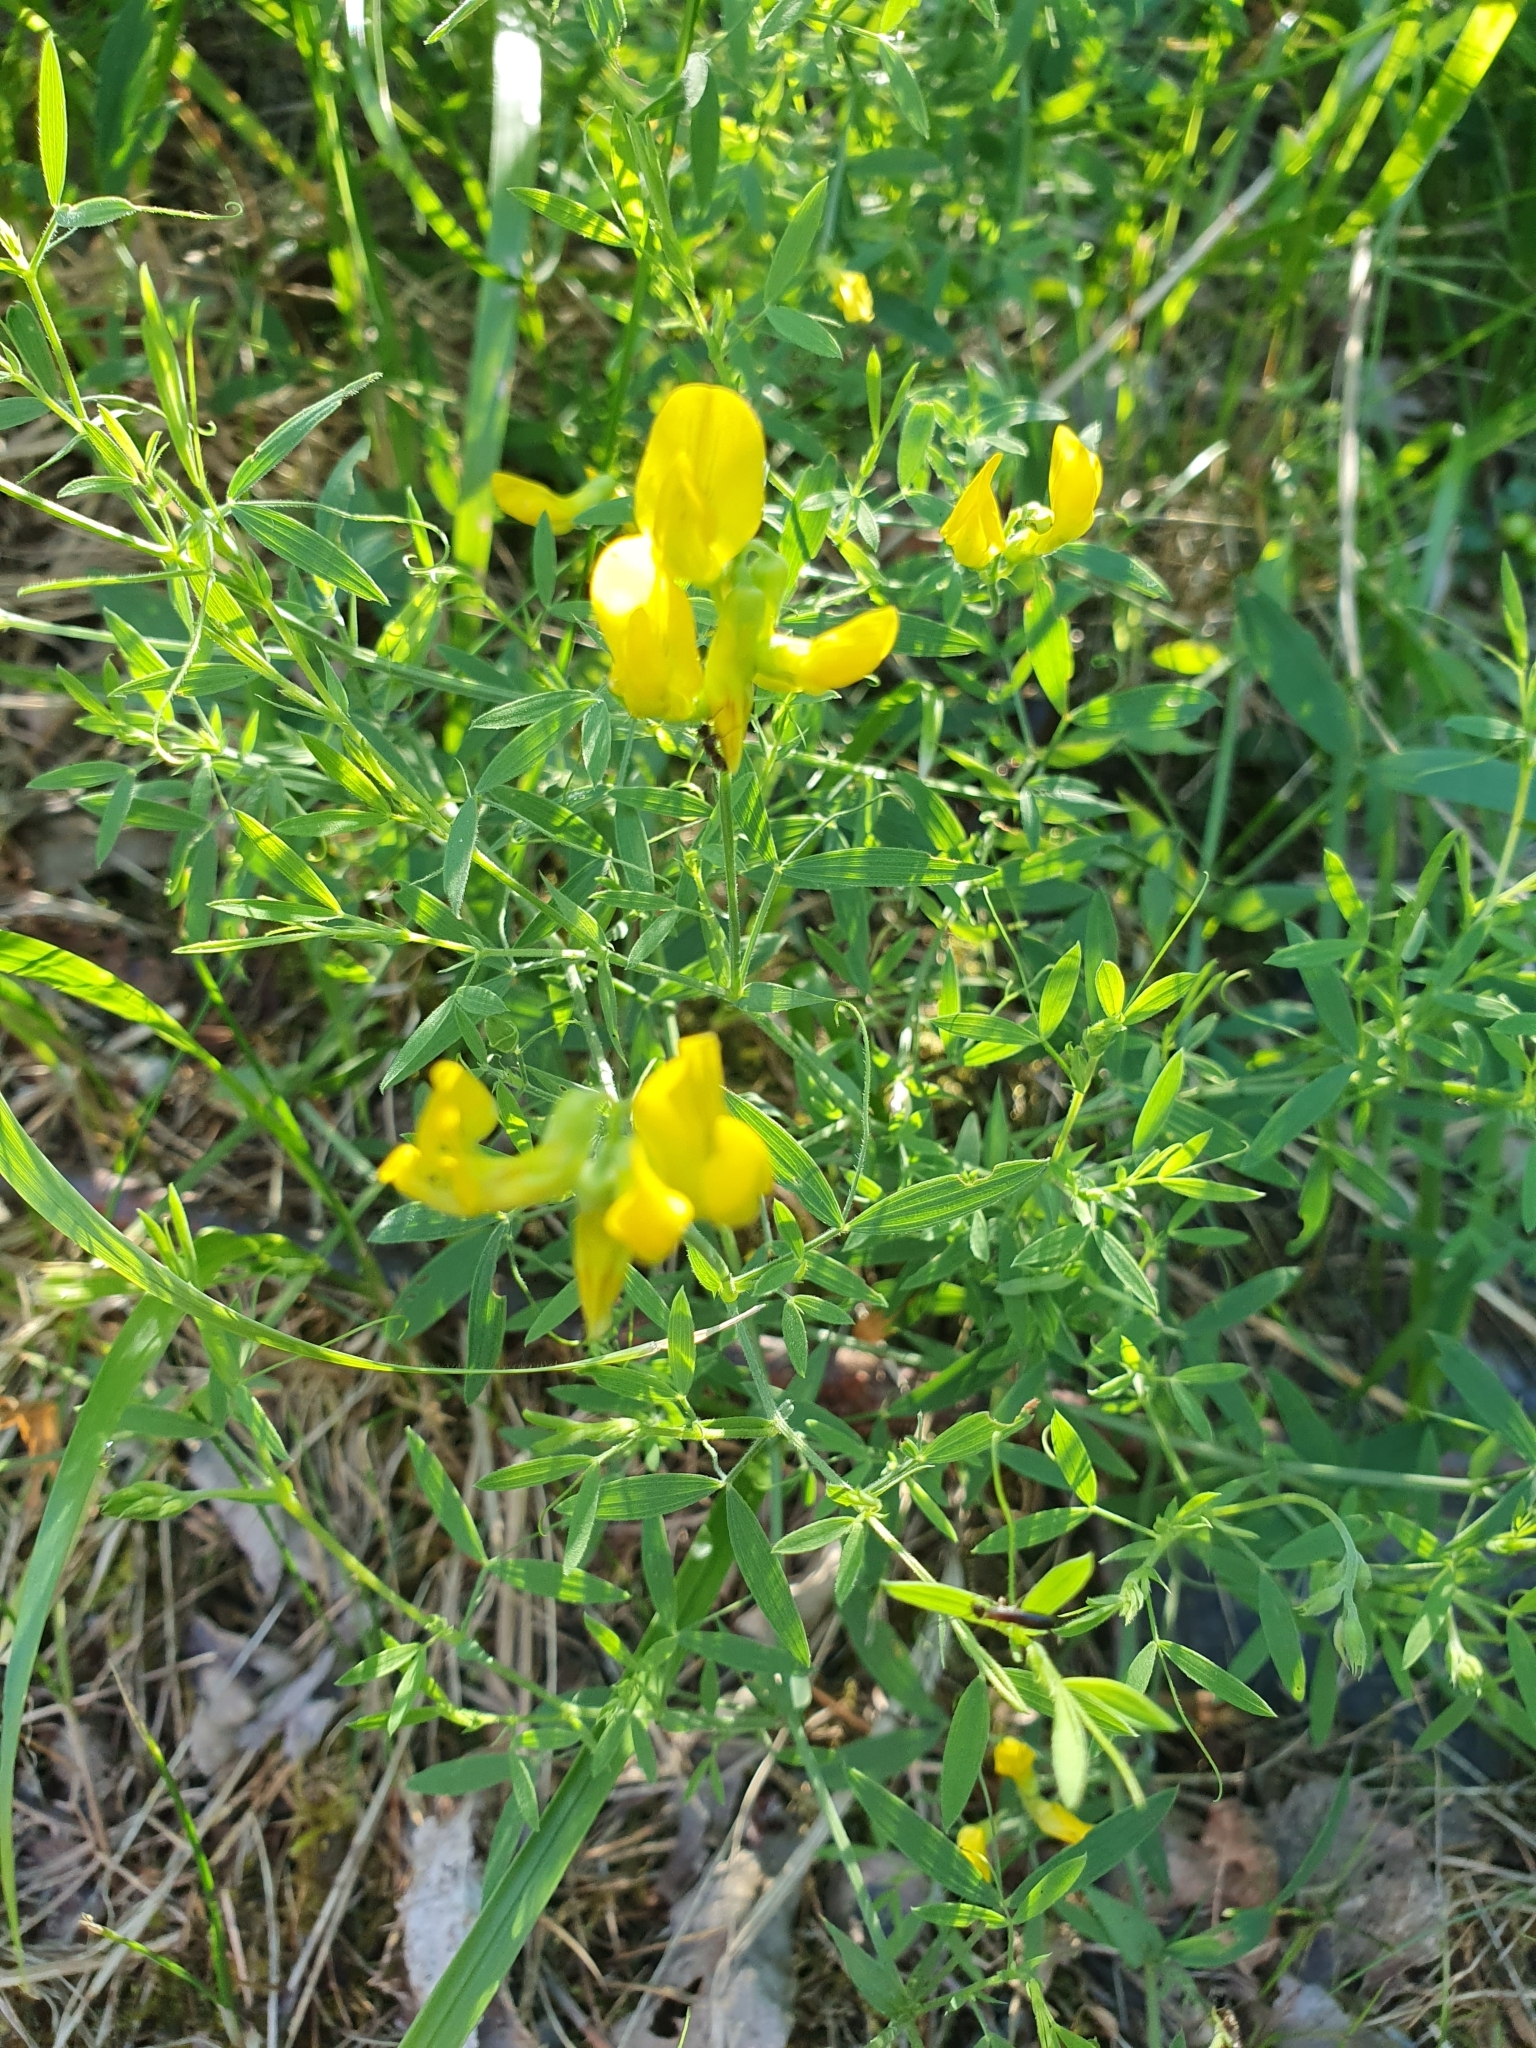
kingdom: Plantae
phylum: Tracheophyta
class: Magnoliopsida
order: Fabales
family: Fabaceae
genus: Lathyrus
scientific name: Lathyrus pratensis
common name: Meadow vetchling
